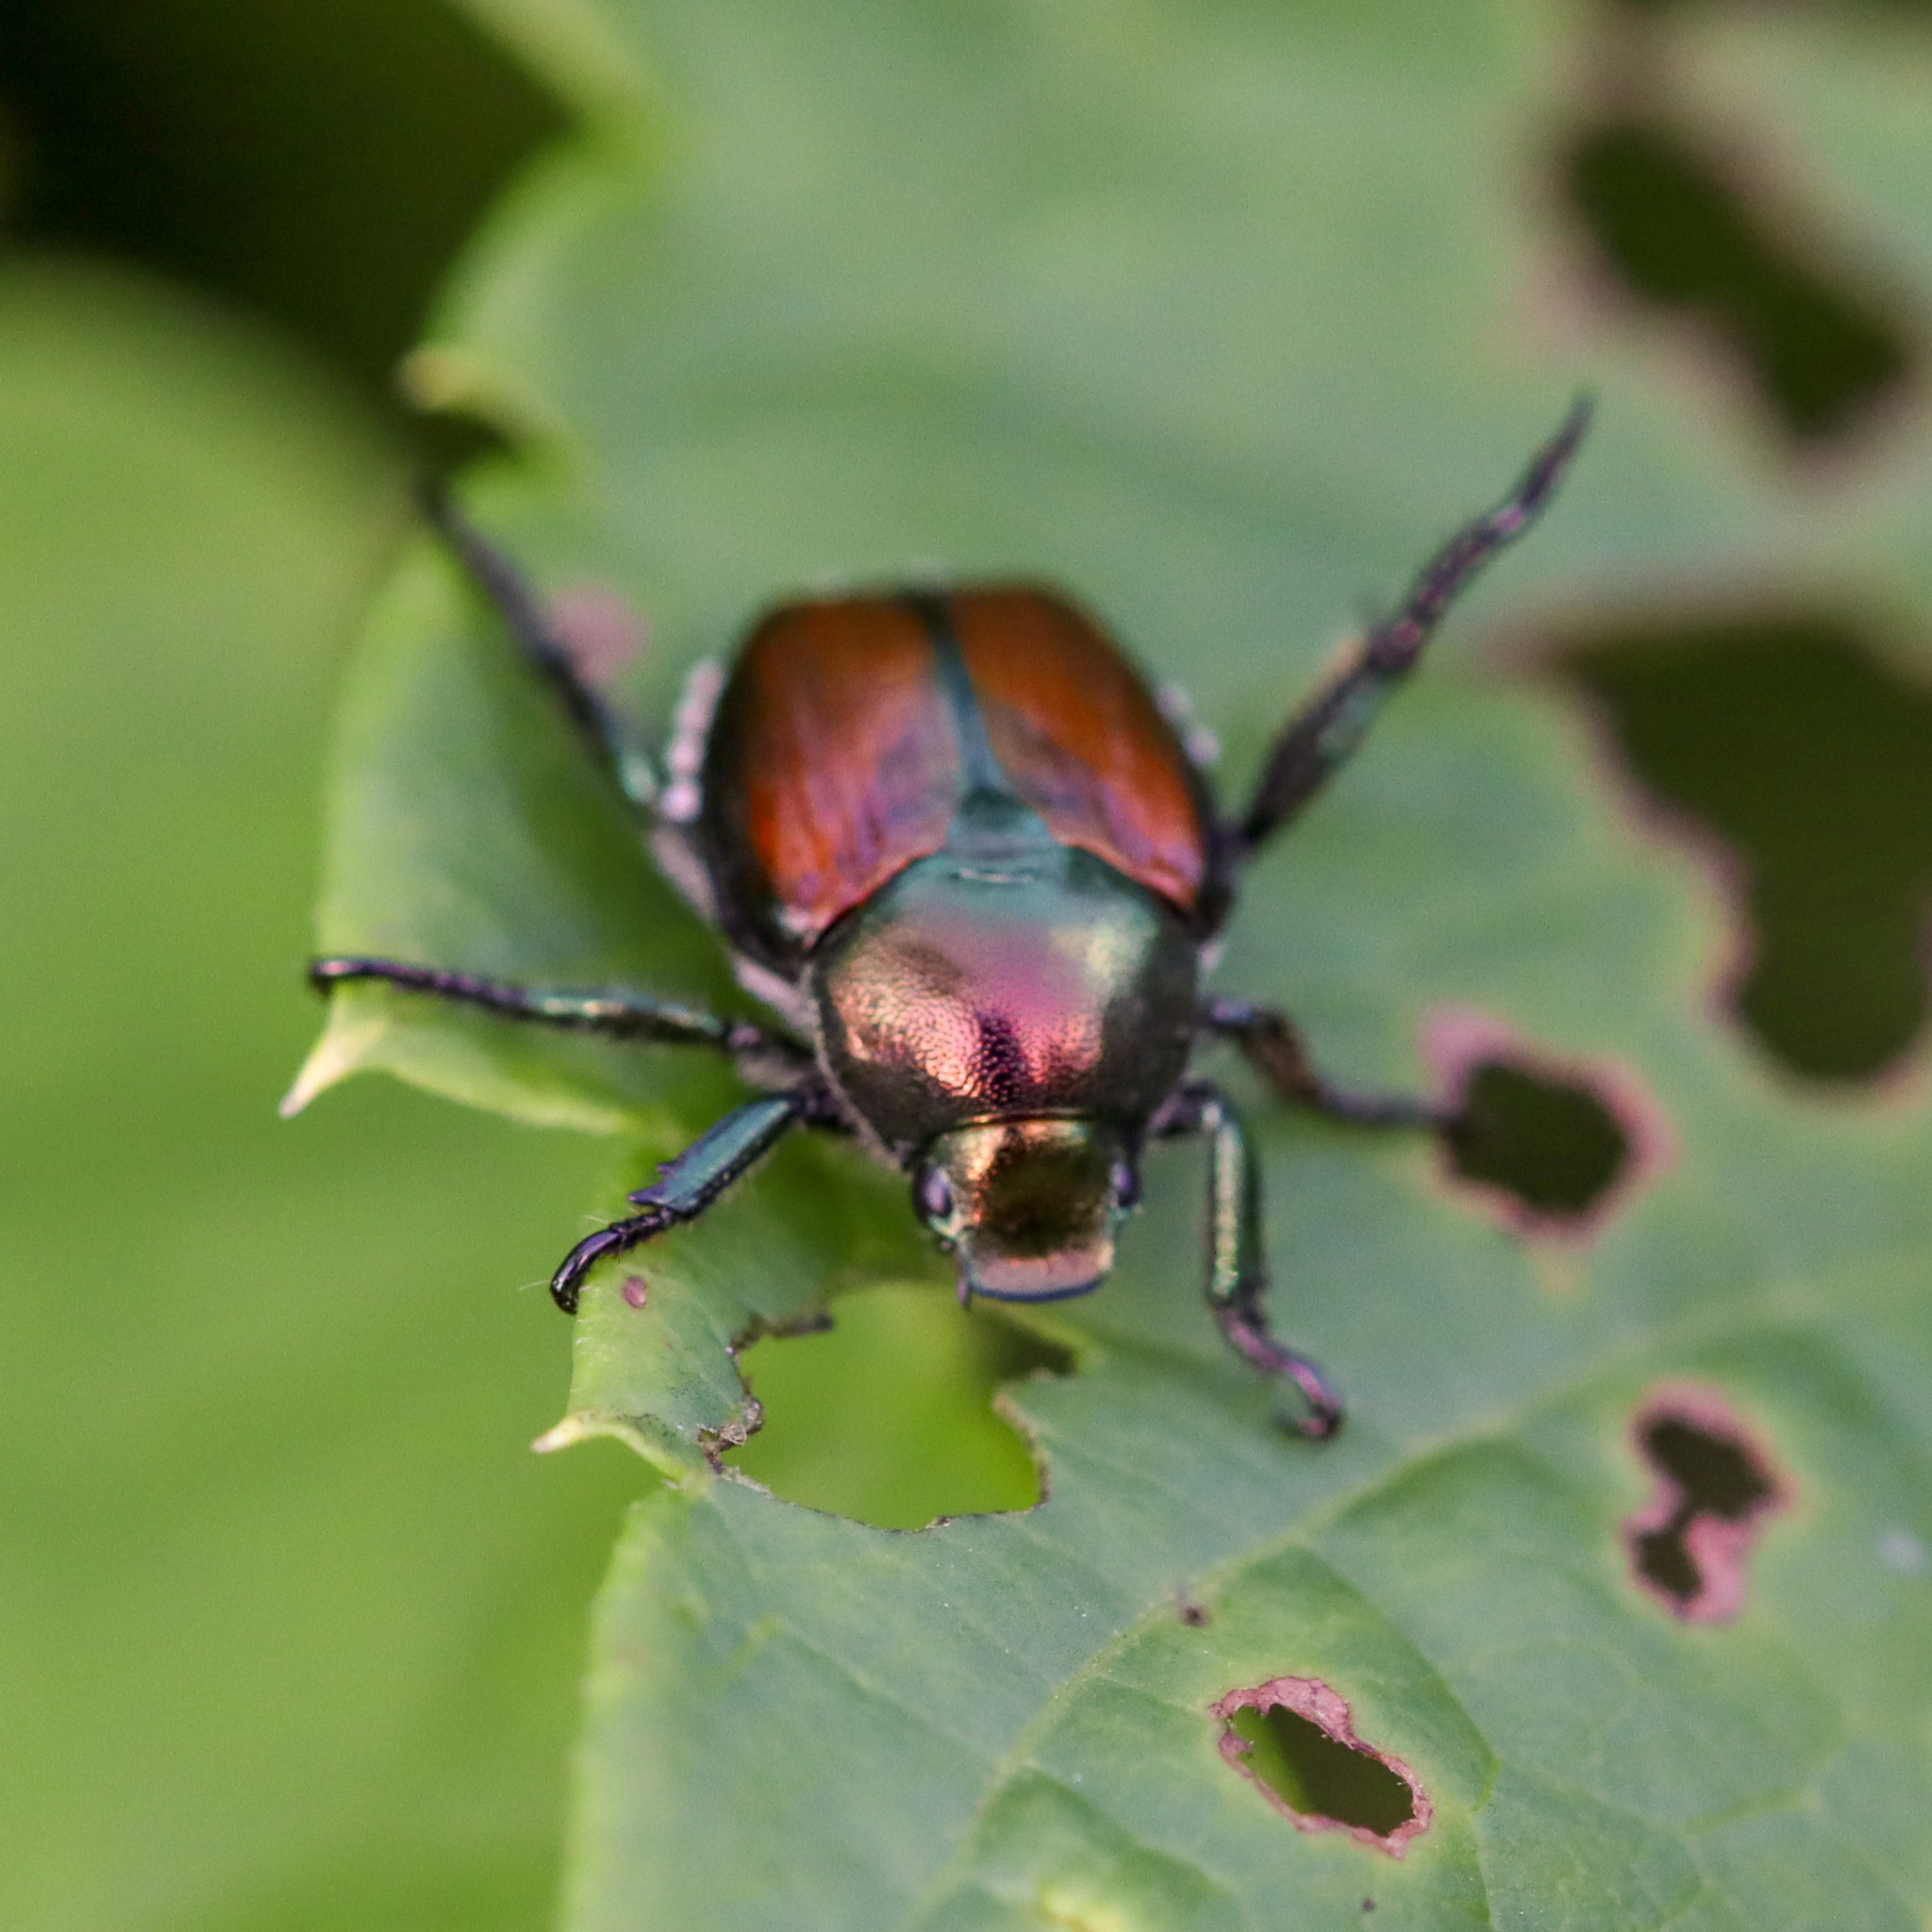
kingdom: Animalia
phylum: Arthropoda
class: Insecta
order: Coleoptera
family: Scarabaeidae
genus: Popillia
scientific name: Popillia japonica
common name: Japanese beetle
